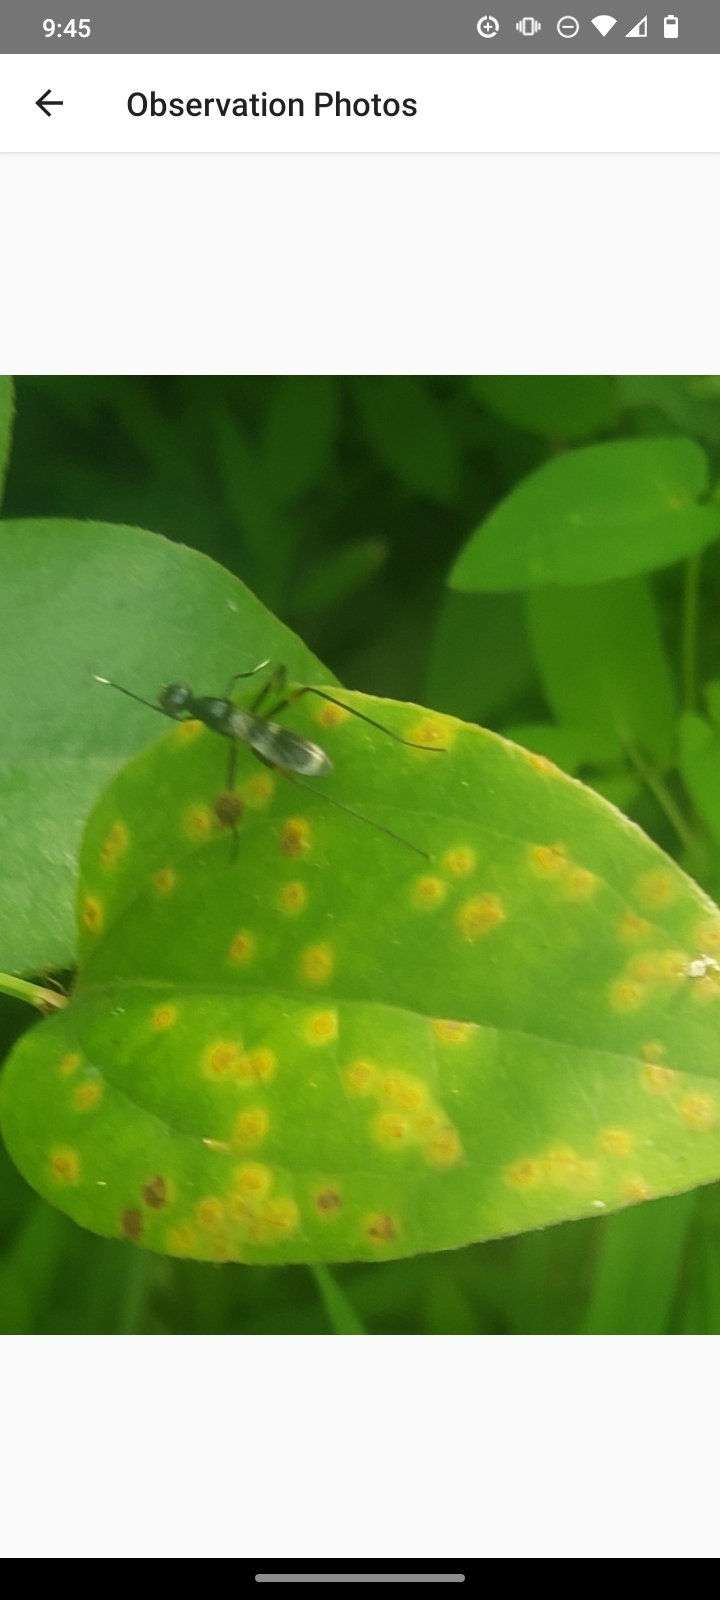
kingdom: Fungi
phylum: Basidiomycota
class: Pucciniomycetes
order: Pucciniales
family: Pucciniaceae
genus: Puccinia
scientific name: Puccinia smilacis
